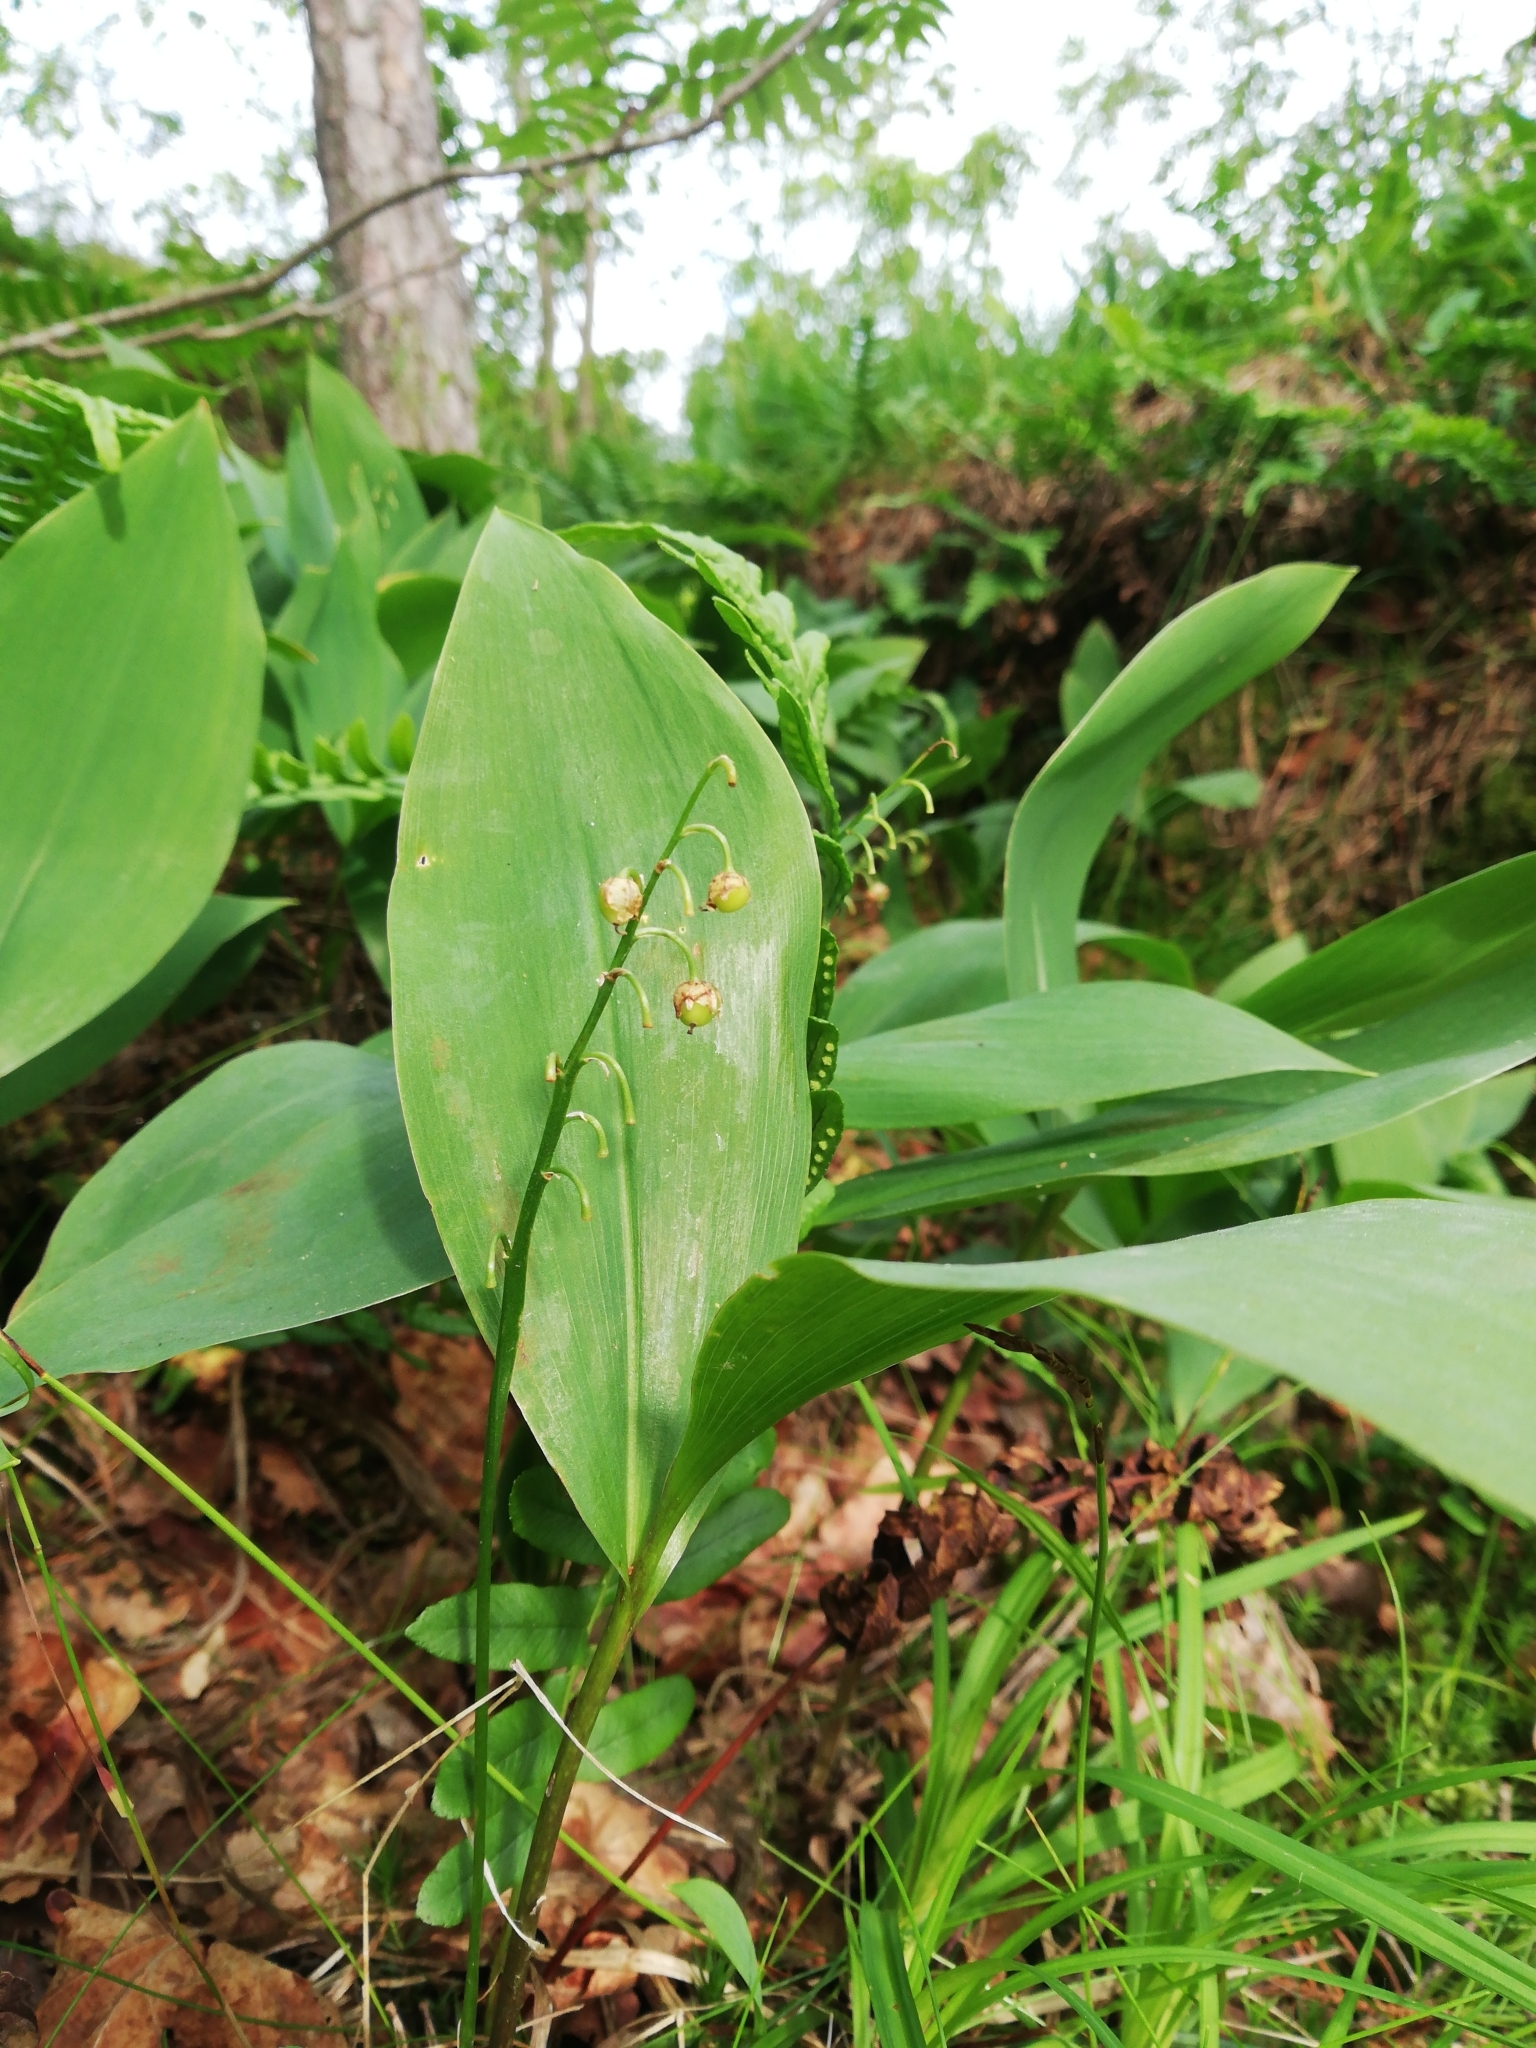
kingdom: Plantae
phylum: Tracheophyta
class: Liliopsida
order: Asparagales
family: Asparagaceae
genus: Convallaria
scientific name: Convallaria majalis
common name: Lily-of-the-valley
